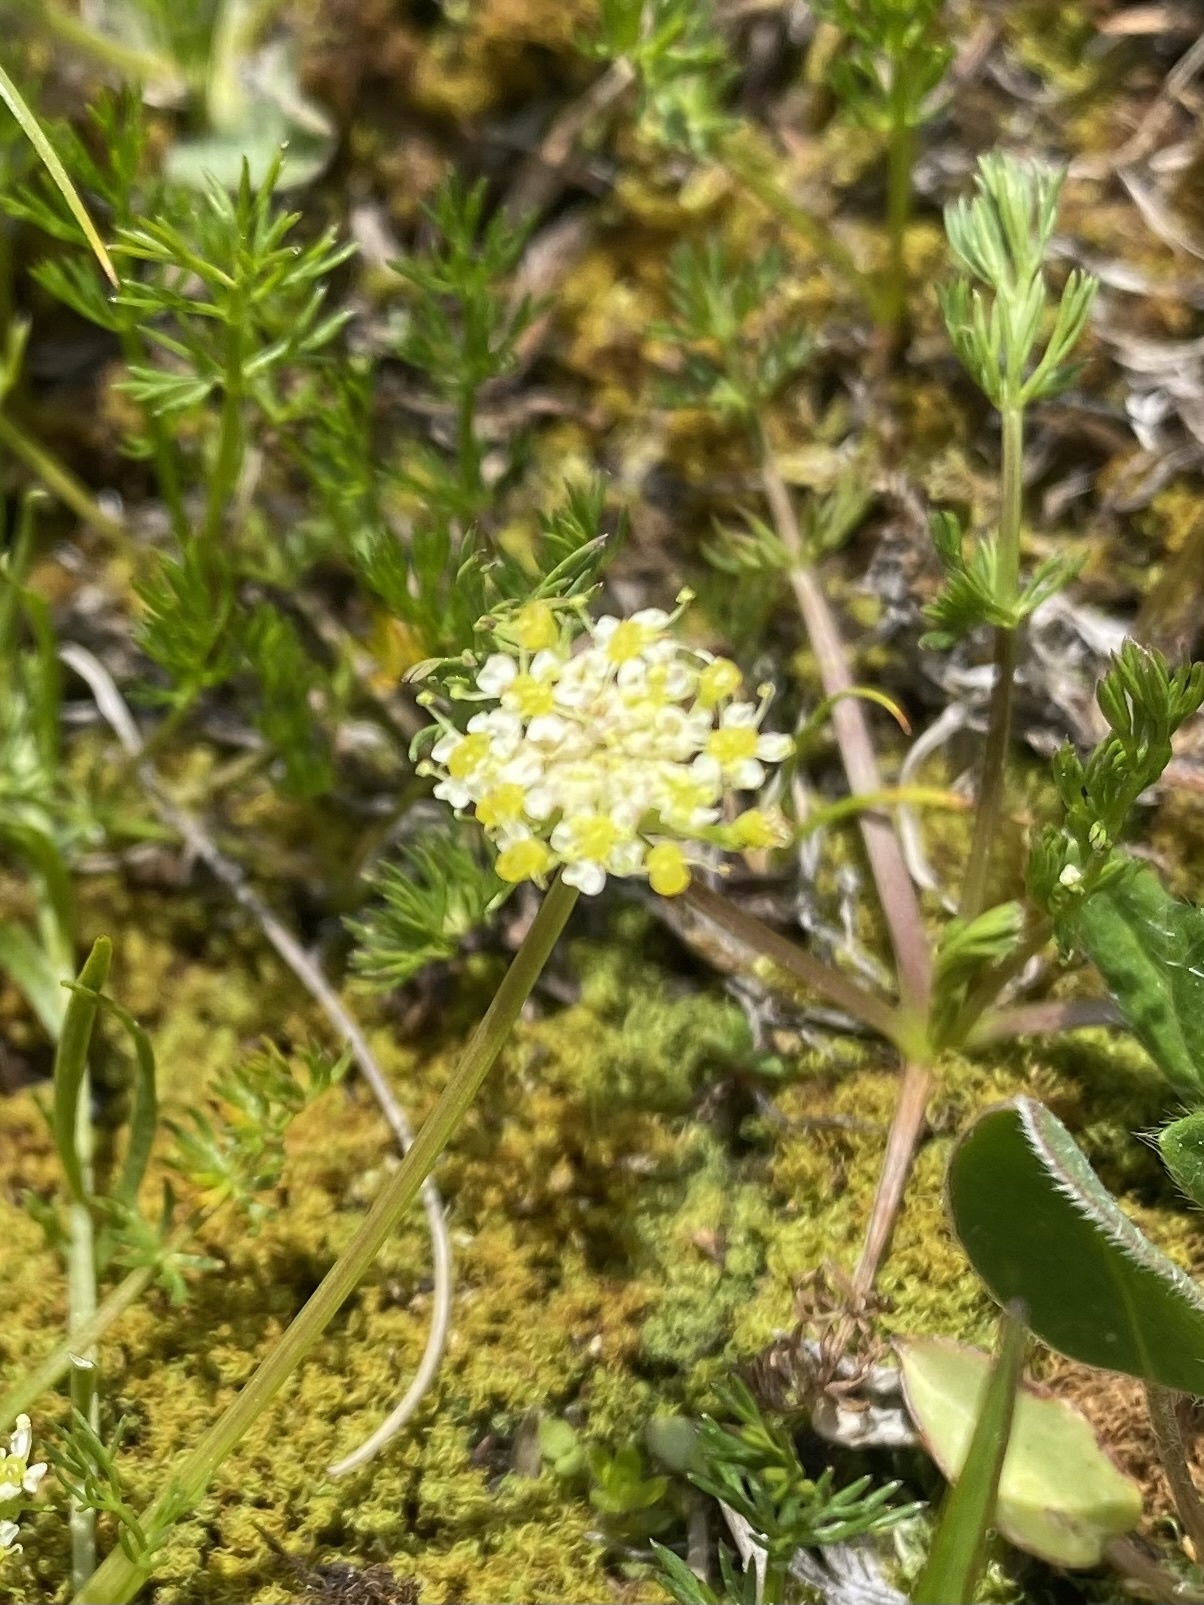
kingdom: Plantae
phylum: Tracheophyta
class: Magnoliopsida
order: Apiales
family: Apiaceae
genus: Chamaesciadium
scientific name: Chamaesciadium acaule
